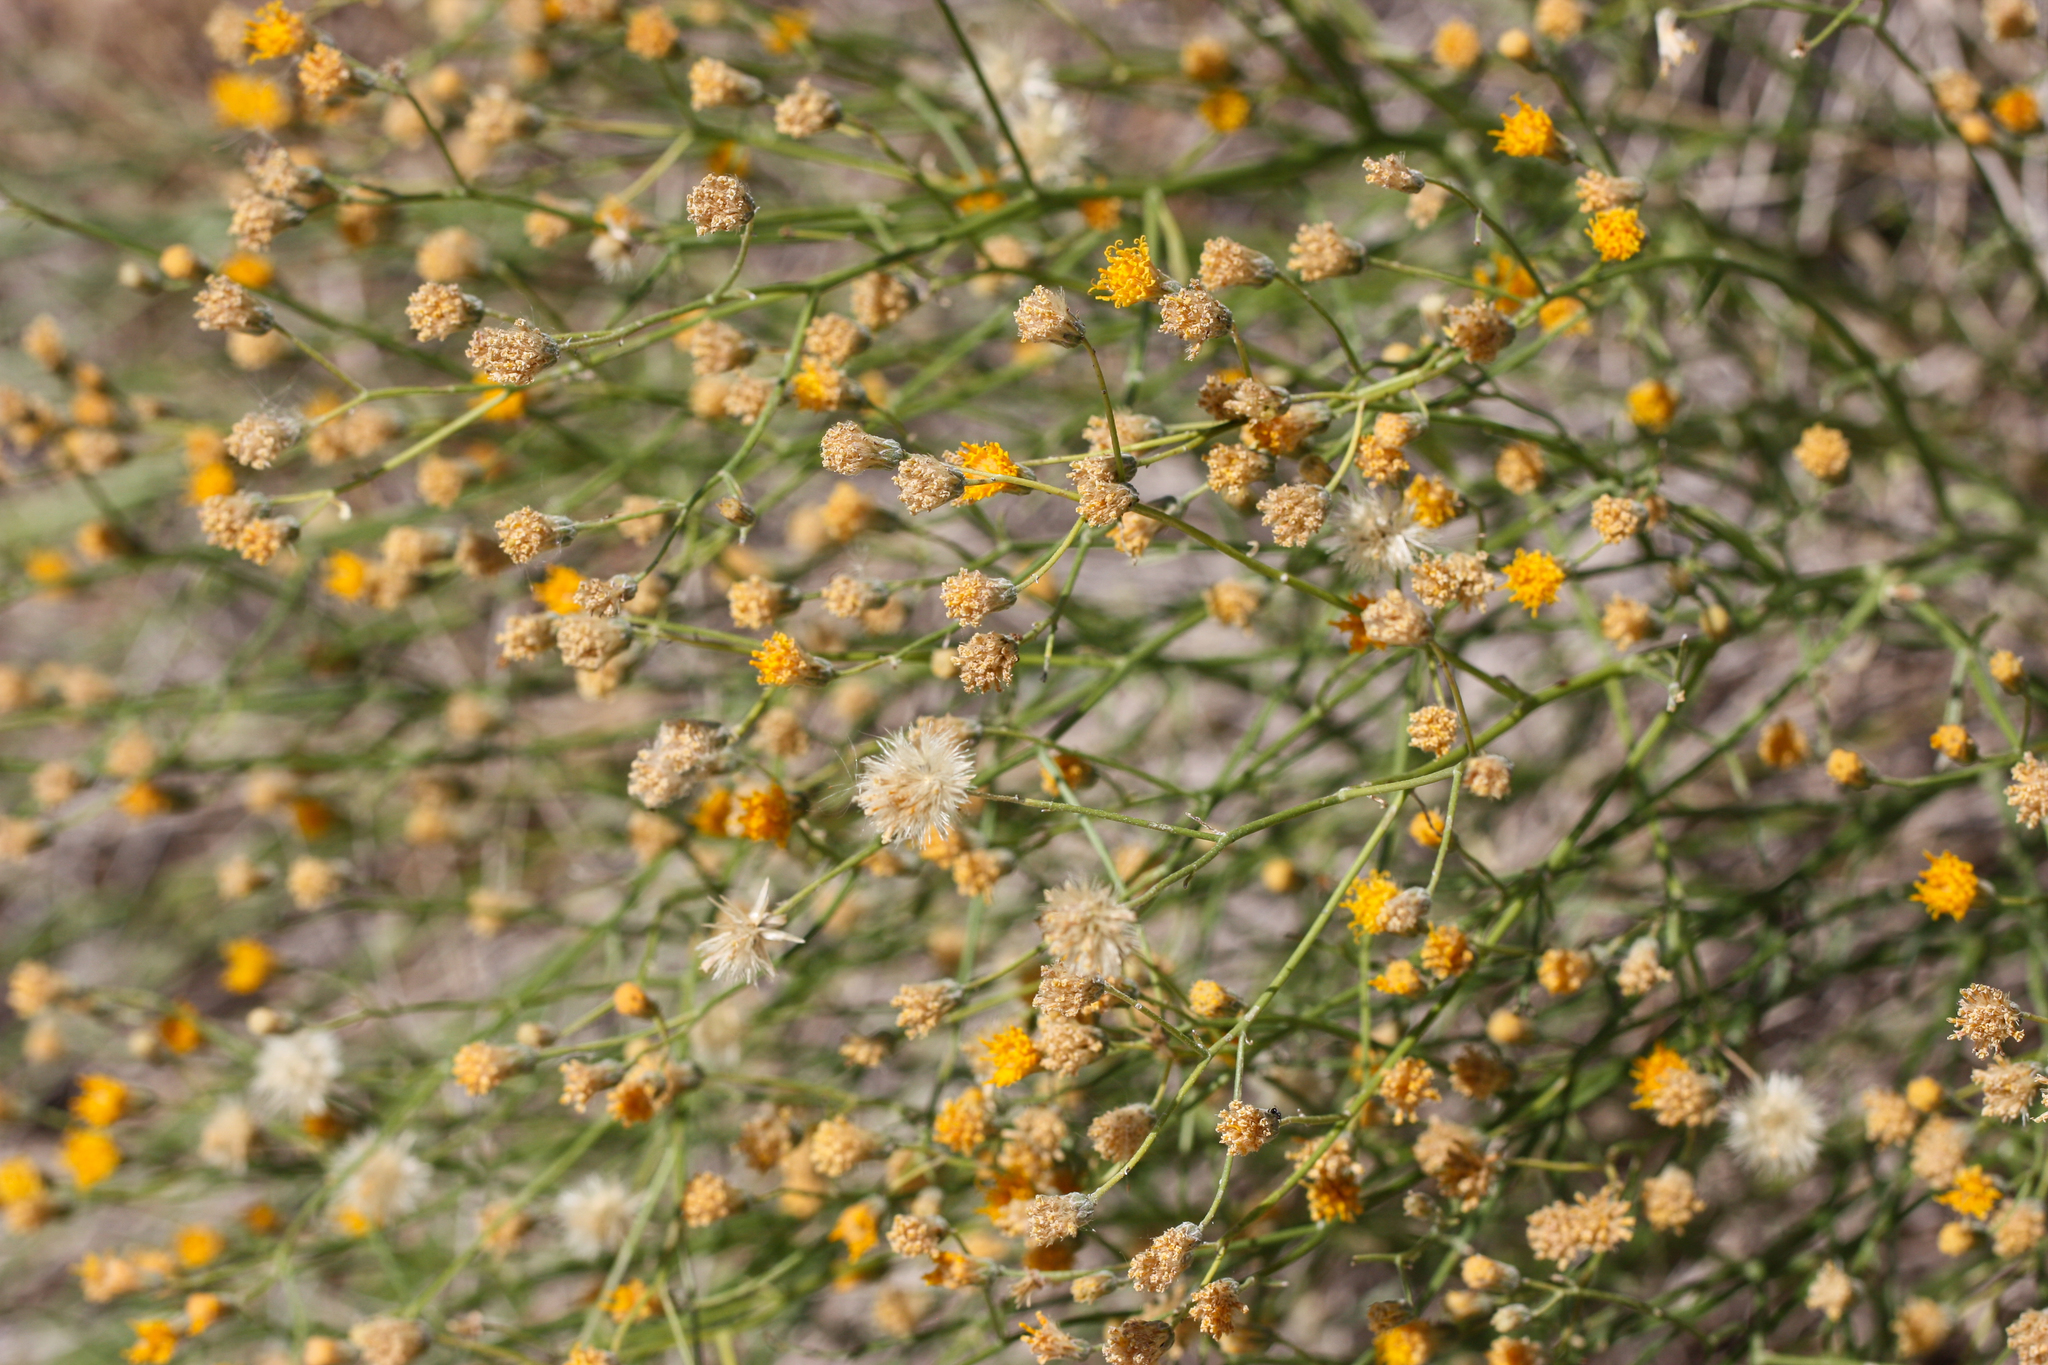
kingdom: Plantae
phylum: Tracheophyta
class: Magnoliopsida
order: Asterales
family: Asteraceae
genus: Bebbia
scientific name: Bebbia juncea
